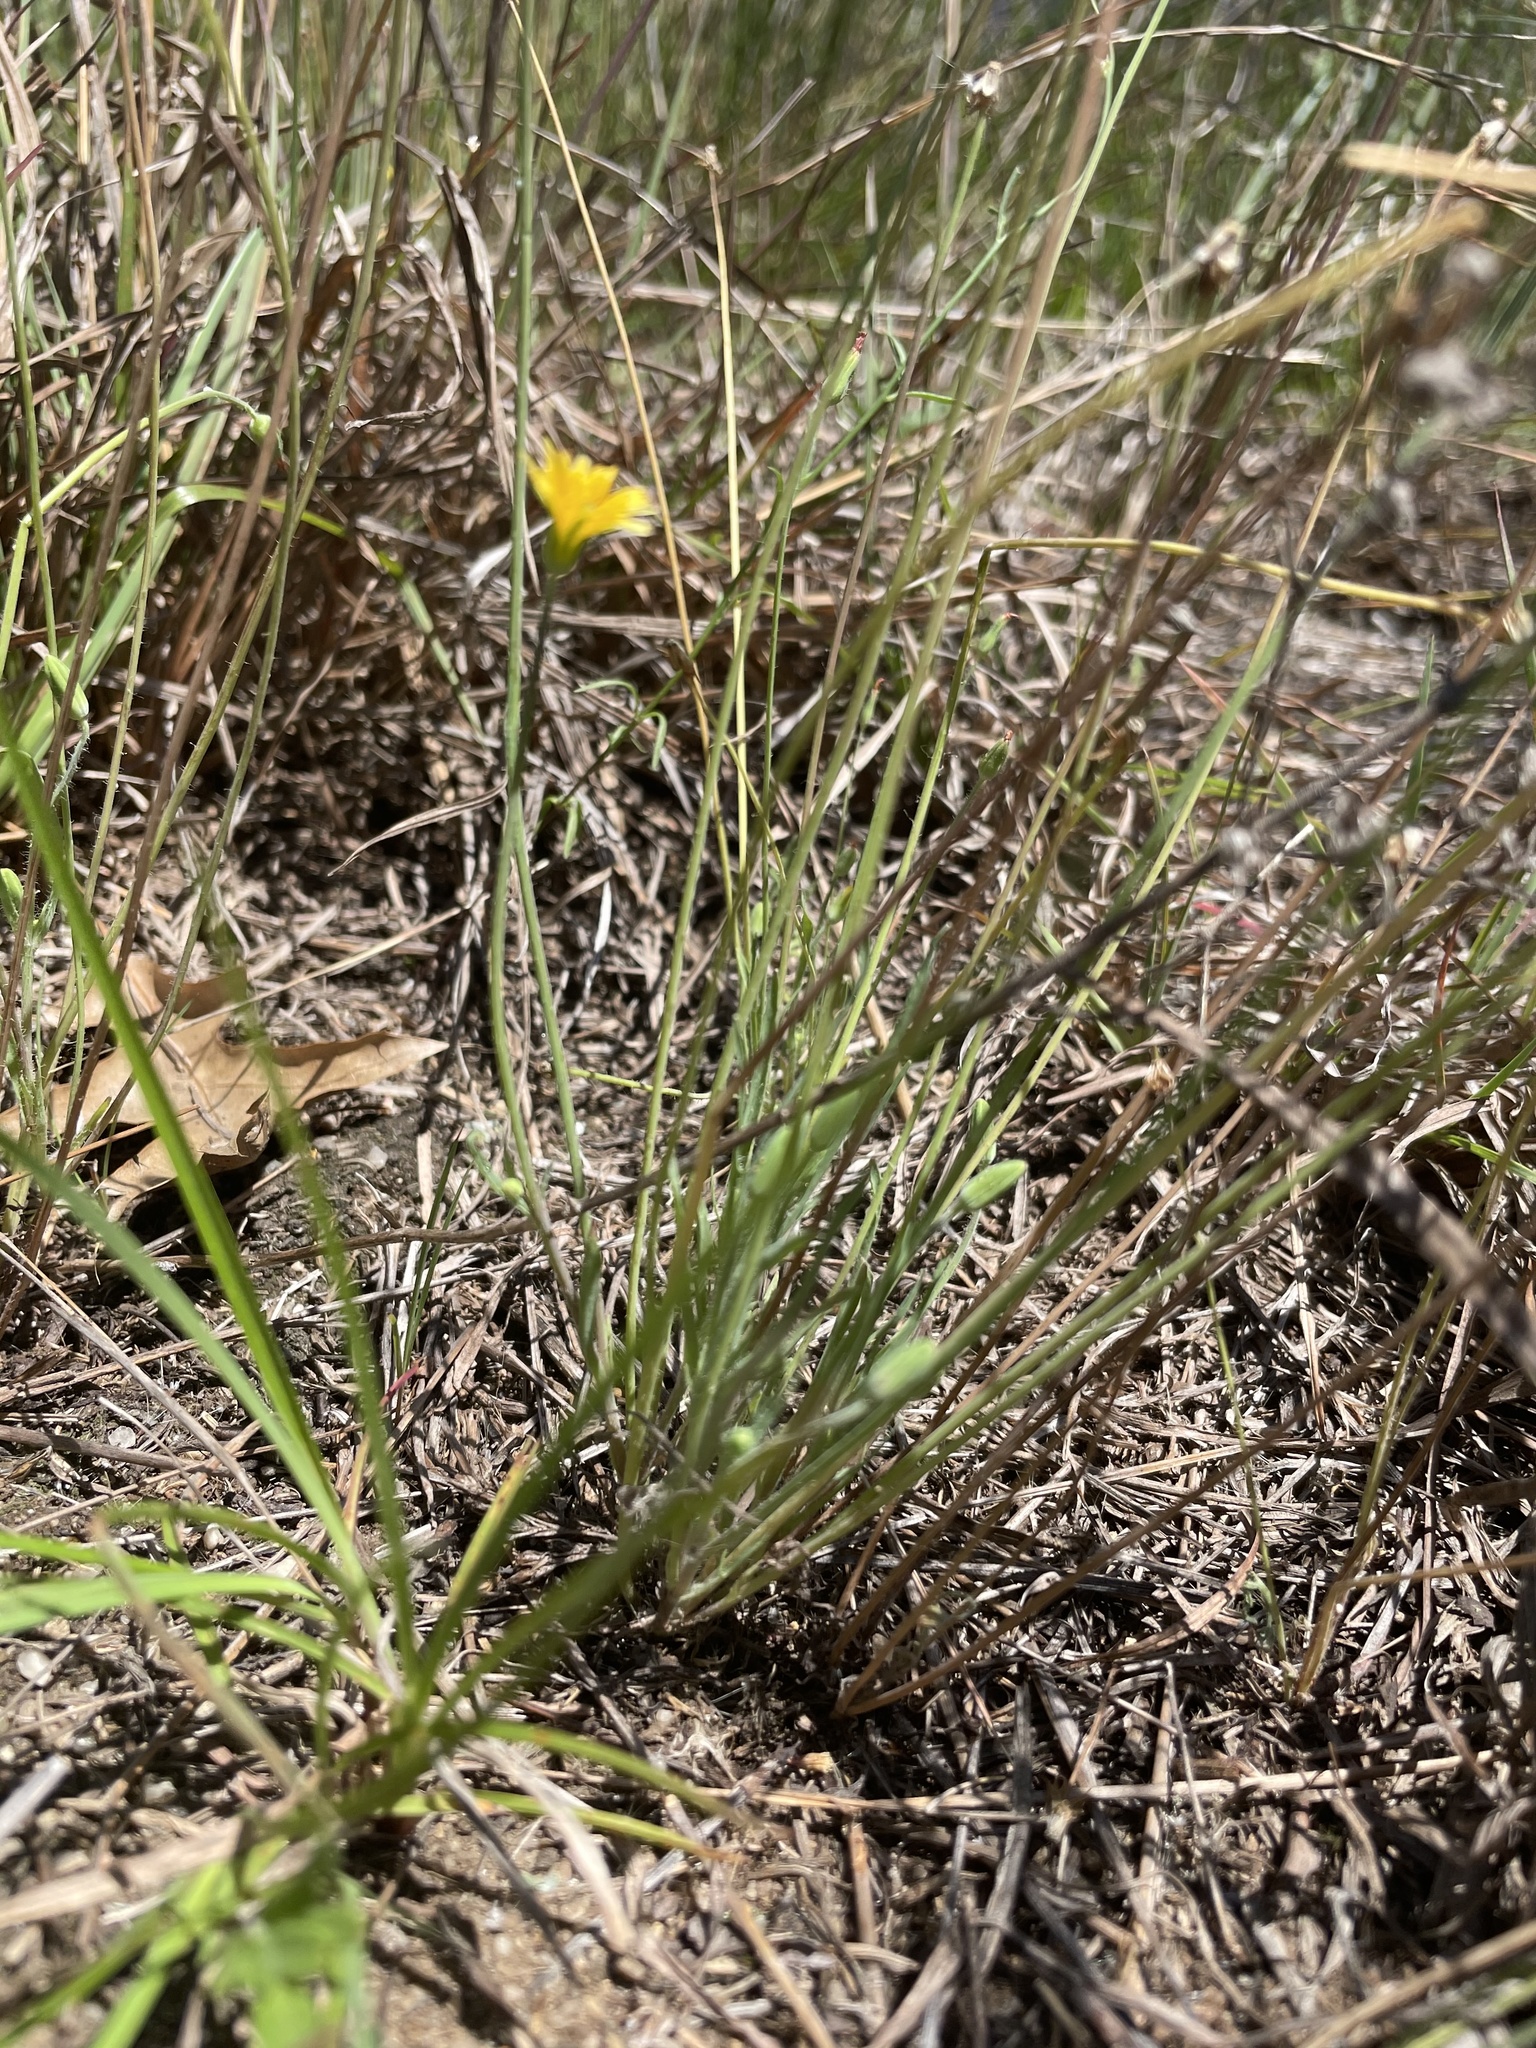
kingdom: Plantae
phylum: Tracheophyta
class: Magnoliopsida
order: Asterales
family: Asteraceae
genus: Krigia
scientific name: Krigia virginica
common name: Virginia dwarf-dandelion
